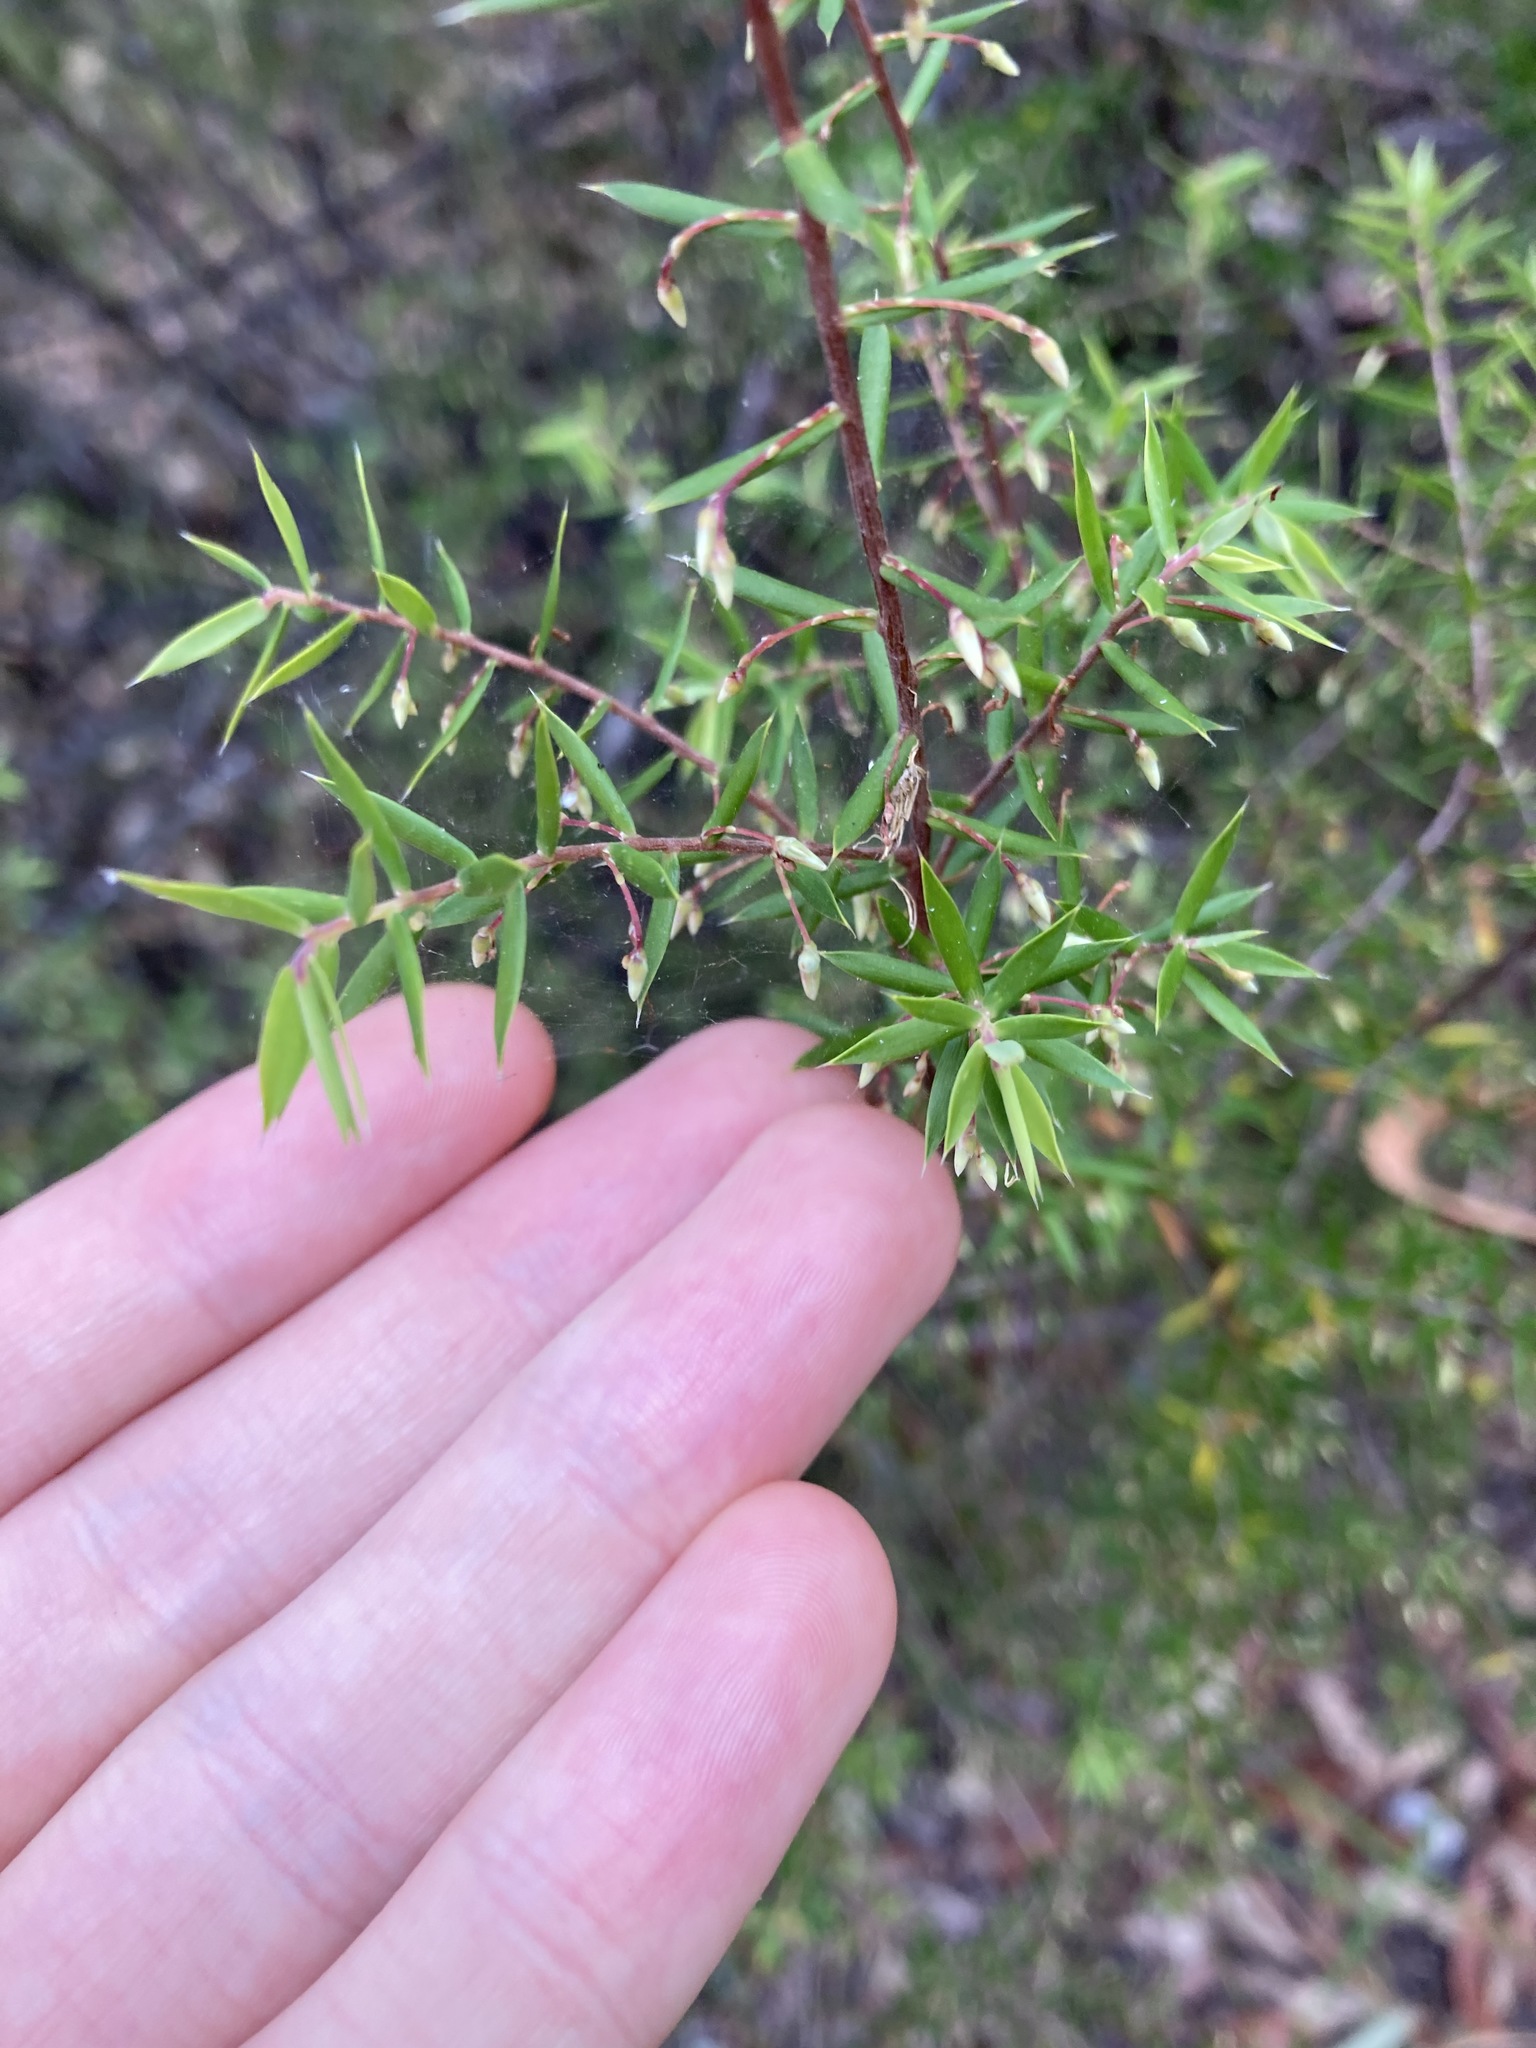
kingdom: Plantae
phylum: Tracheophyta
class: Magnoliopsida
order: Ericales
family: Ericaceae
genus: Styphelia
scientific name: Styphelia setigera
